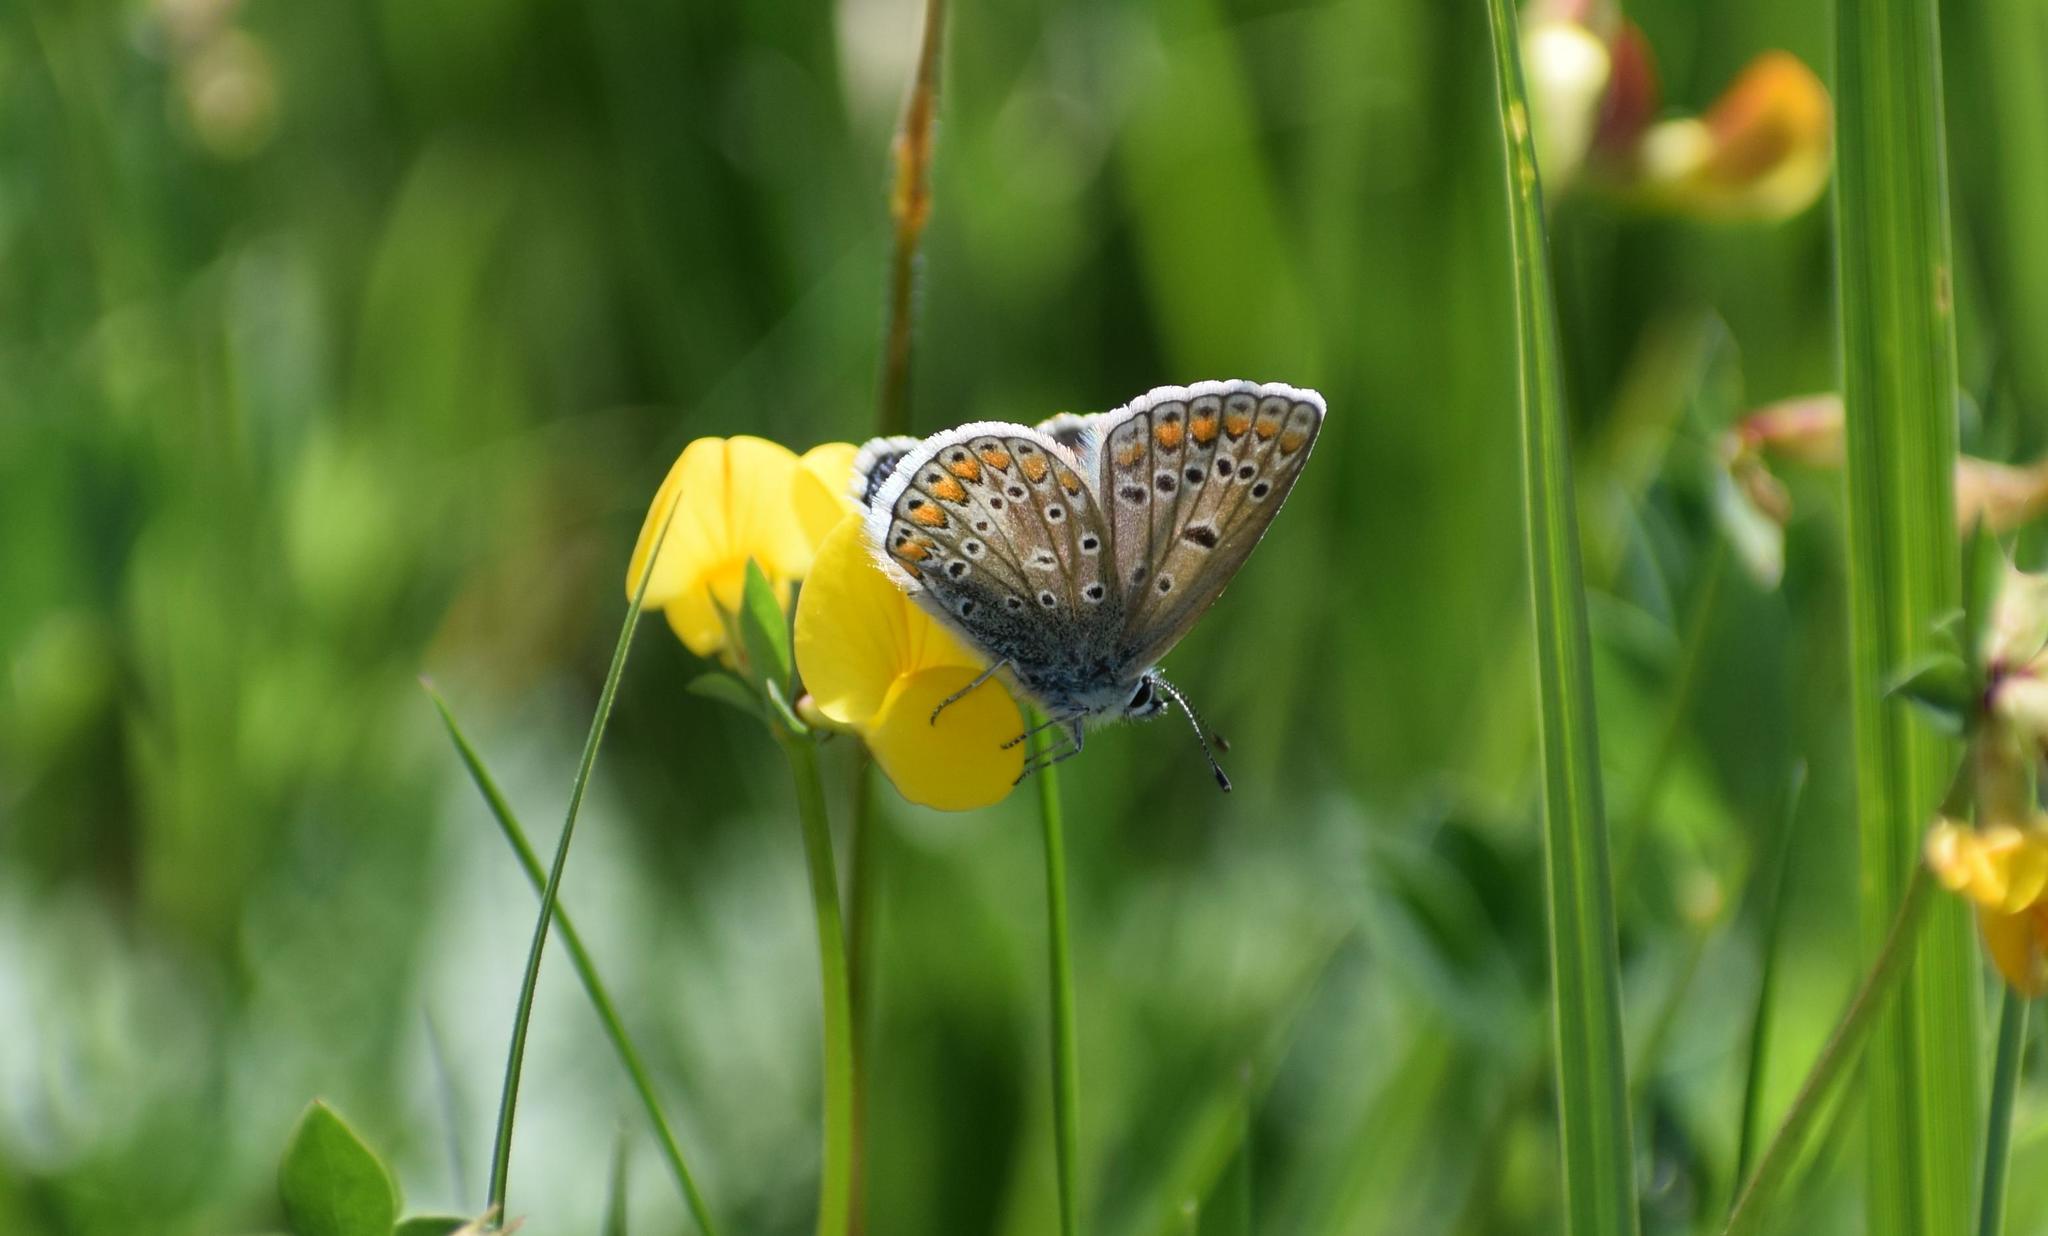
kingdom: Animalia
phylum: Arthropoda
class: Insecta
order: Lepidoptera
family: Lycaenidae
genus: Polyommatus
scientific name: Polyommatus icarus
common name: Common blue
